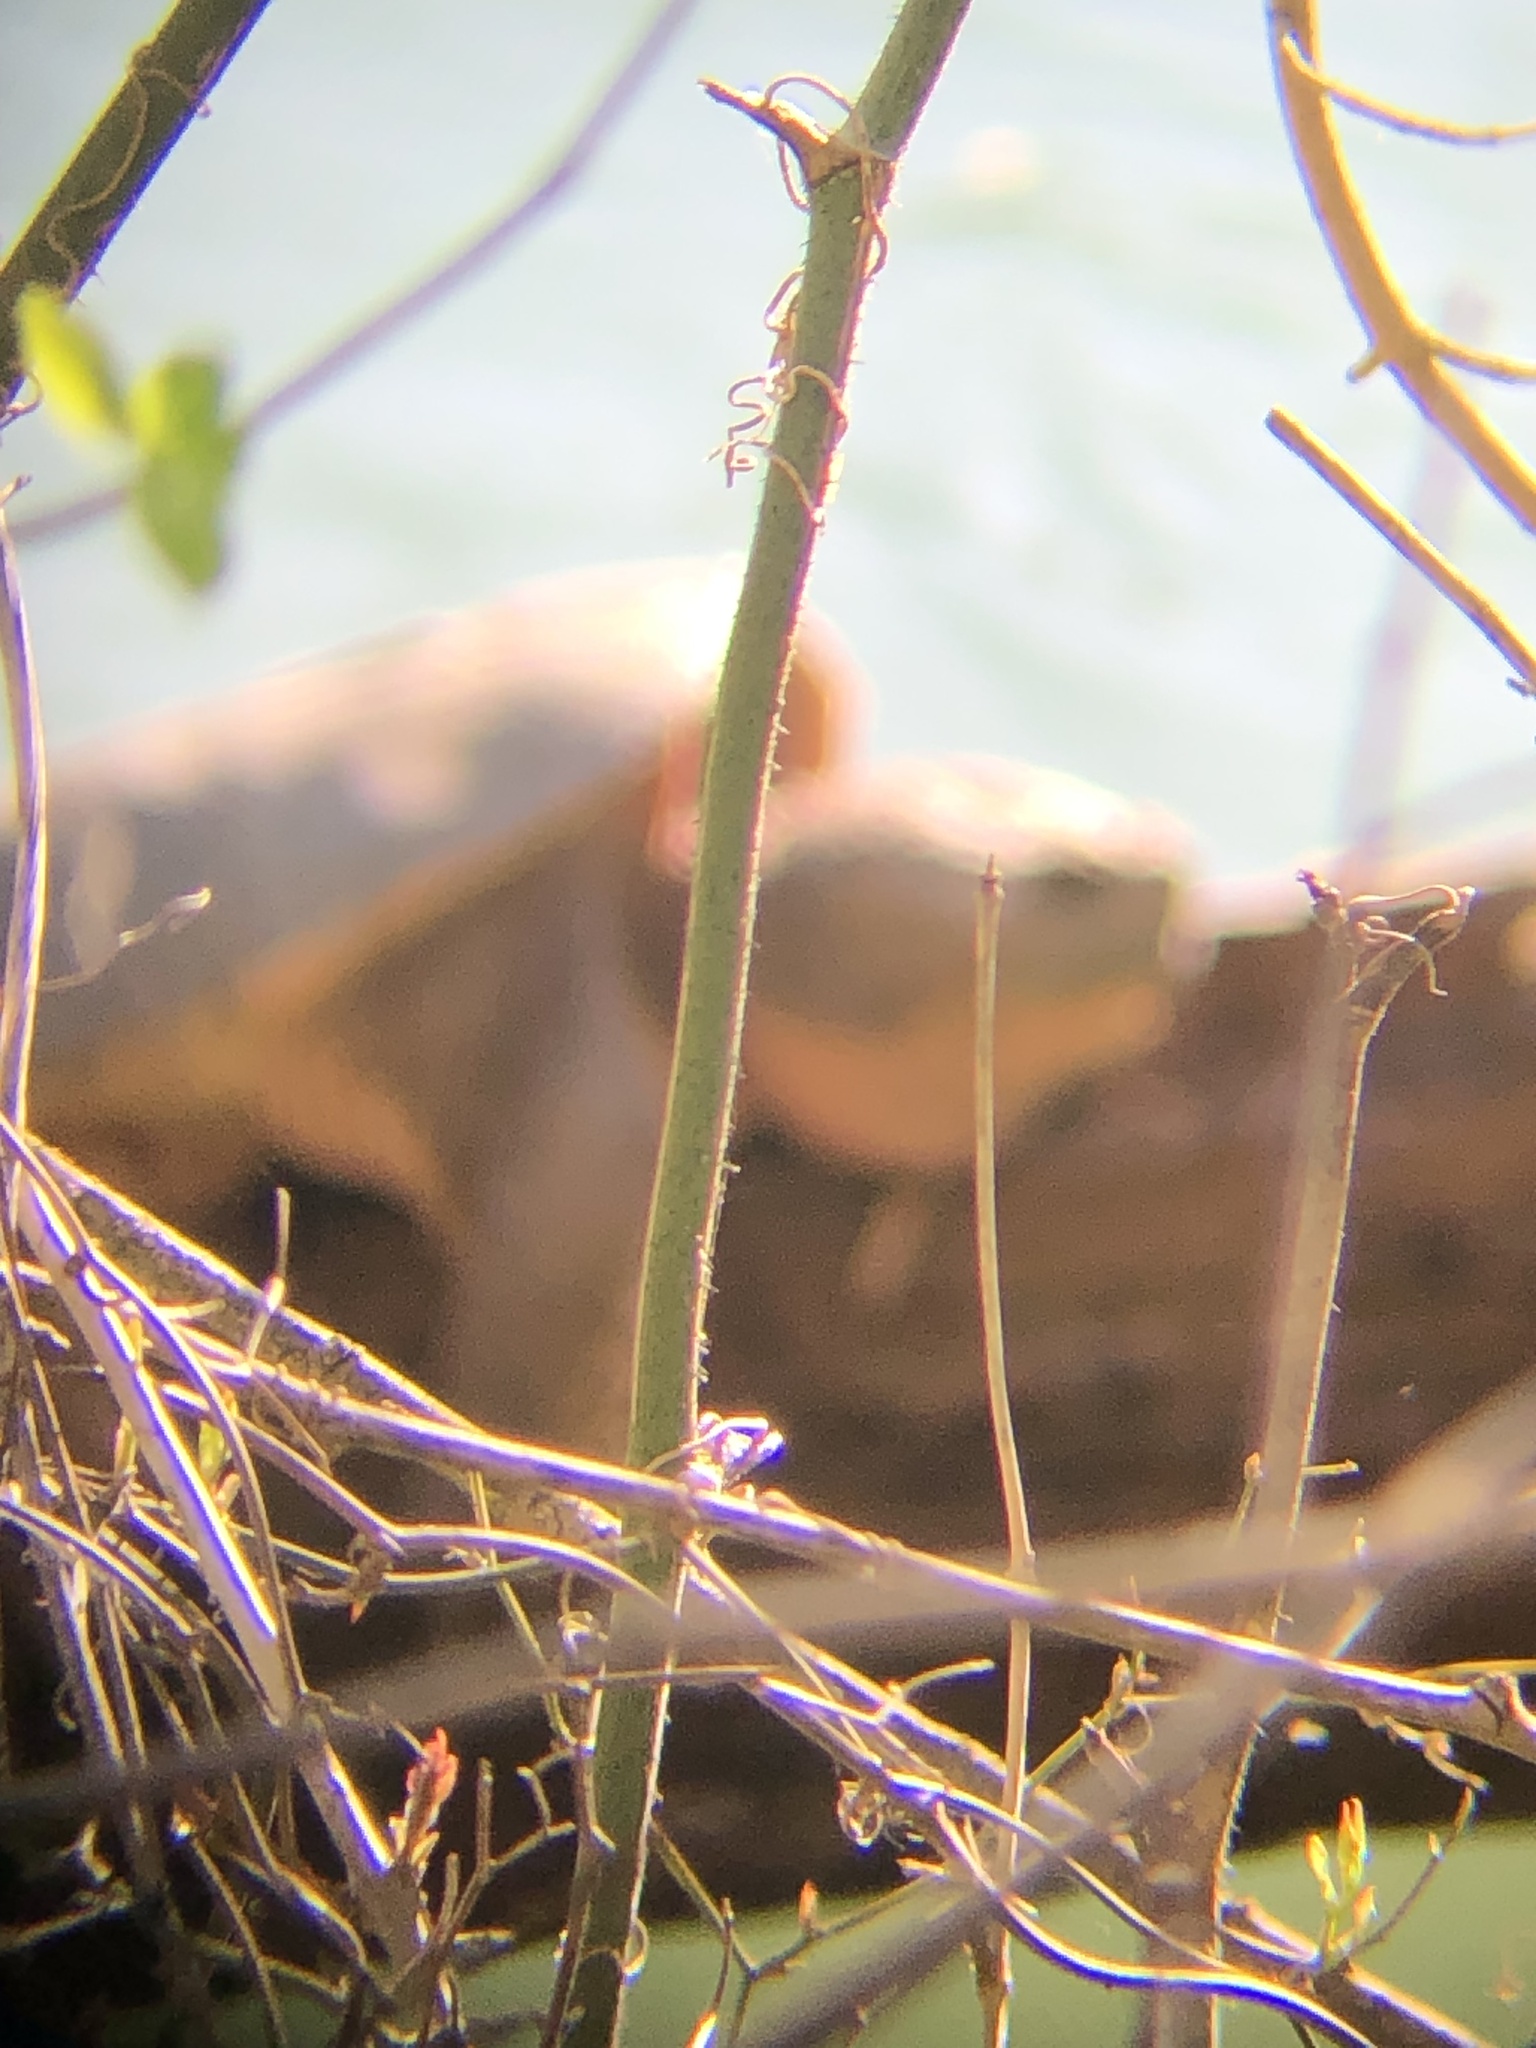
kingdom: Animalia
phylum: Chordata
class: Testudines
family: Chelydridae
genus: Chelydra
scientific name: Chelydra serpentina
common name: Common snapping turtle
